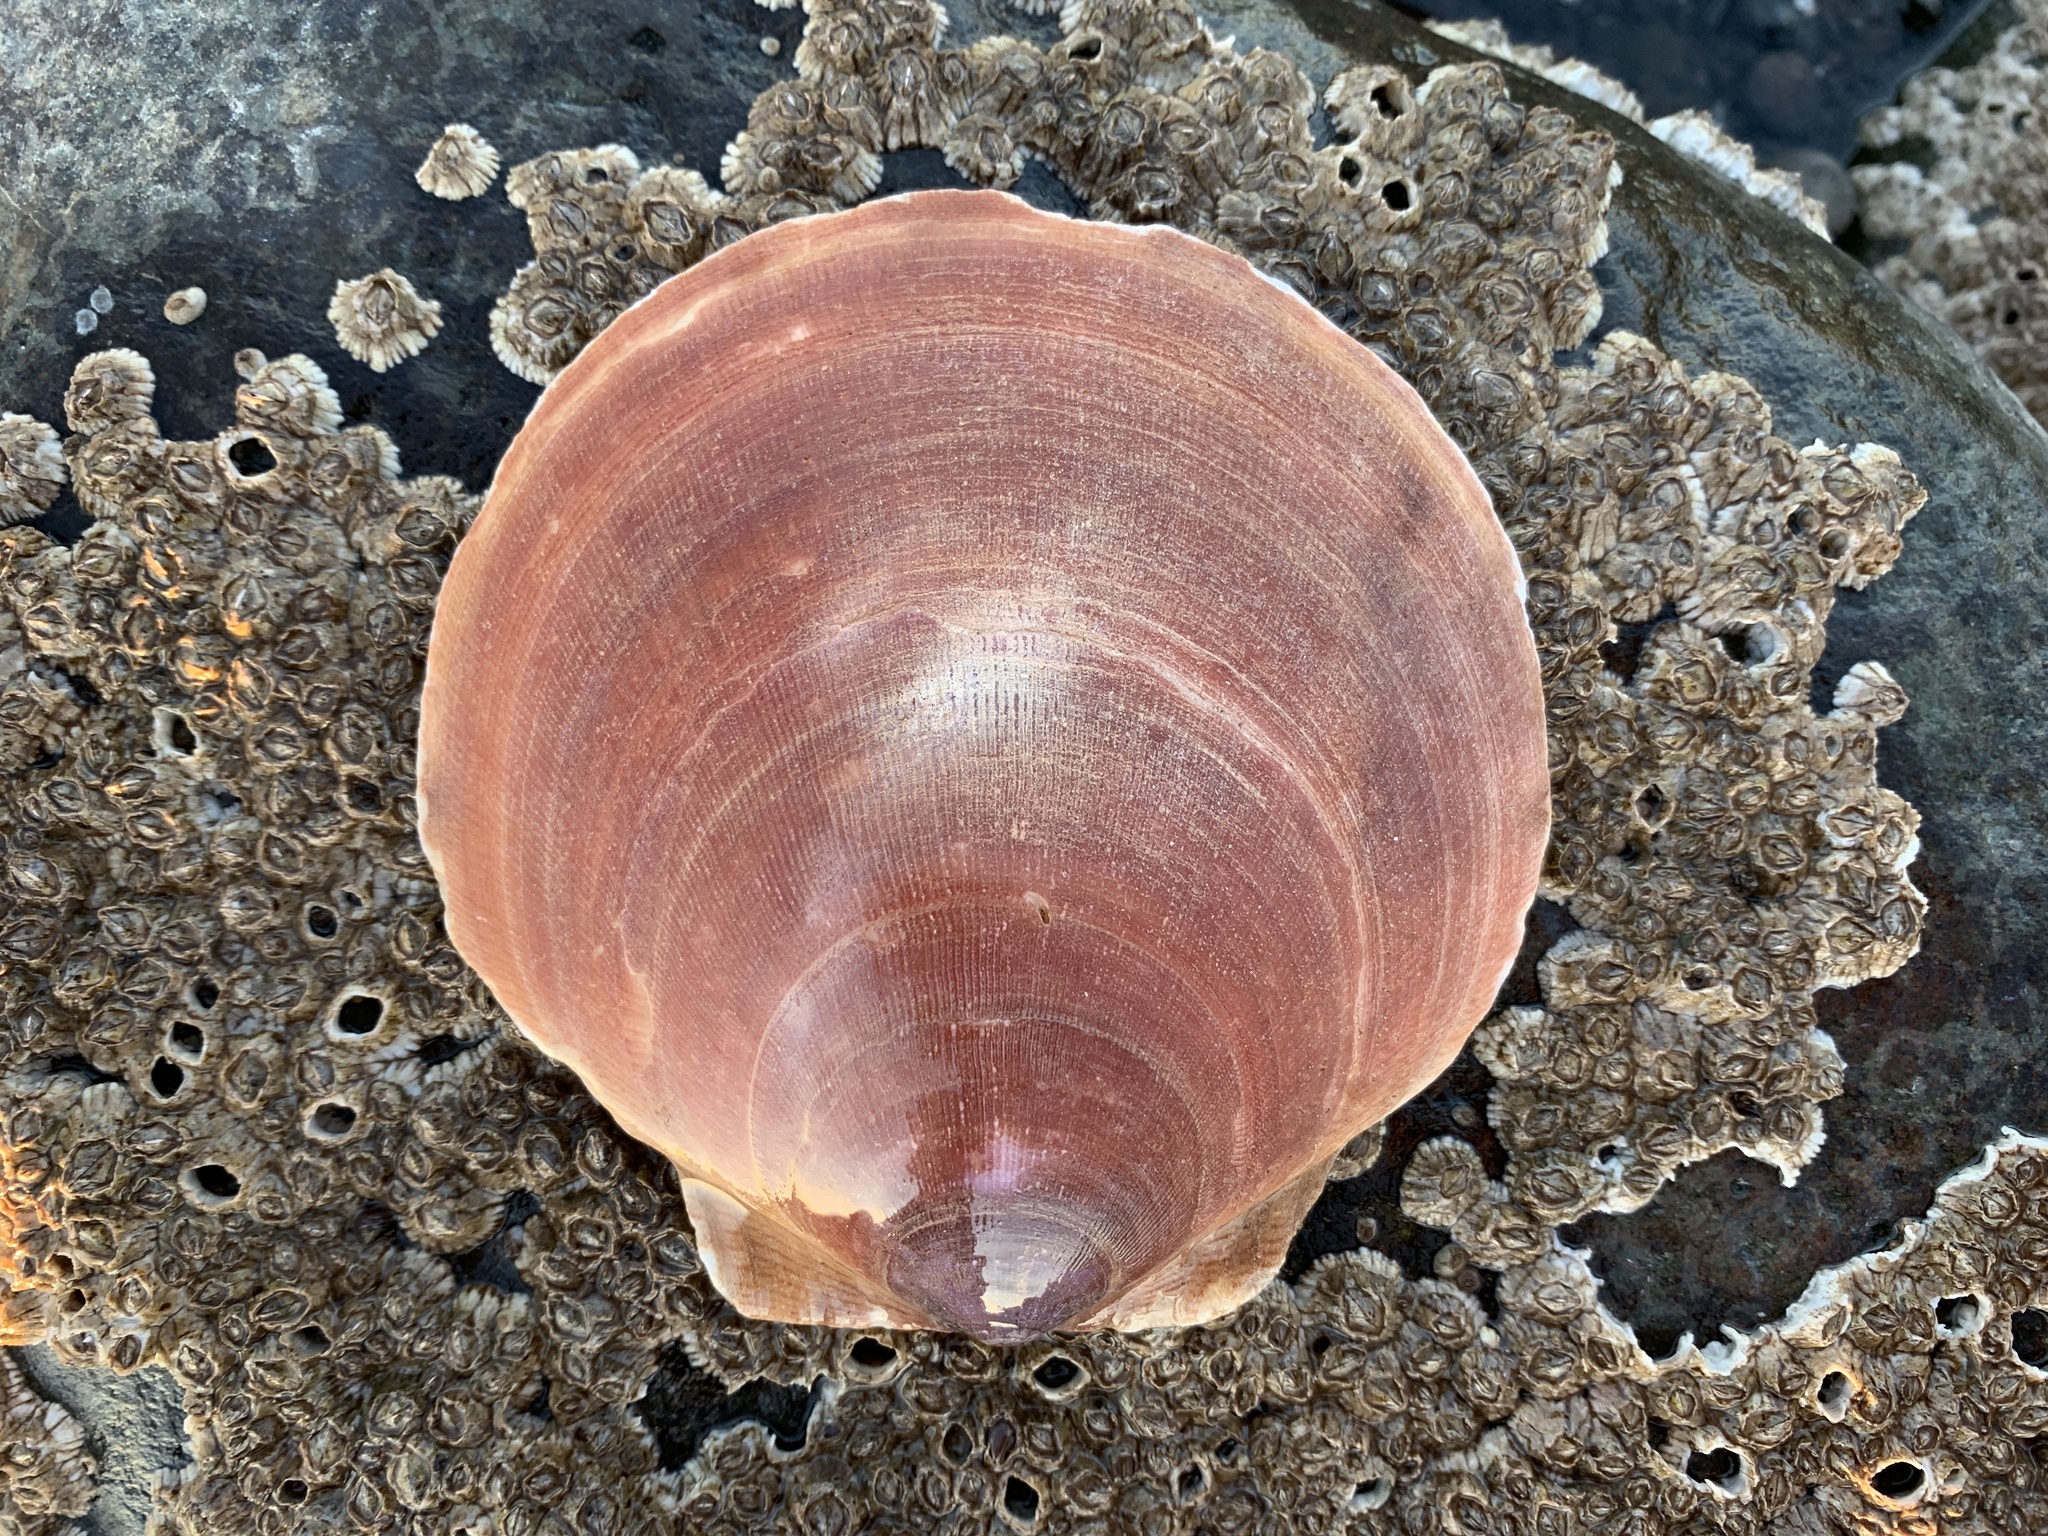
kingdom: Animalia
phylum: Mollusca
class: Bivalvia
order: Pectinida
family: Pectinidae
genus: Placopecten
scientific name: Placopecten magellanicus
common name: American sea scallop
